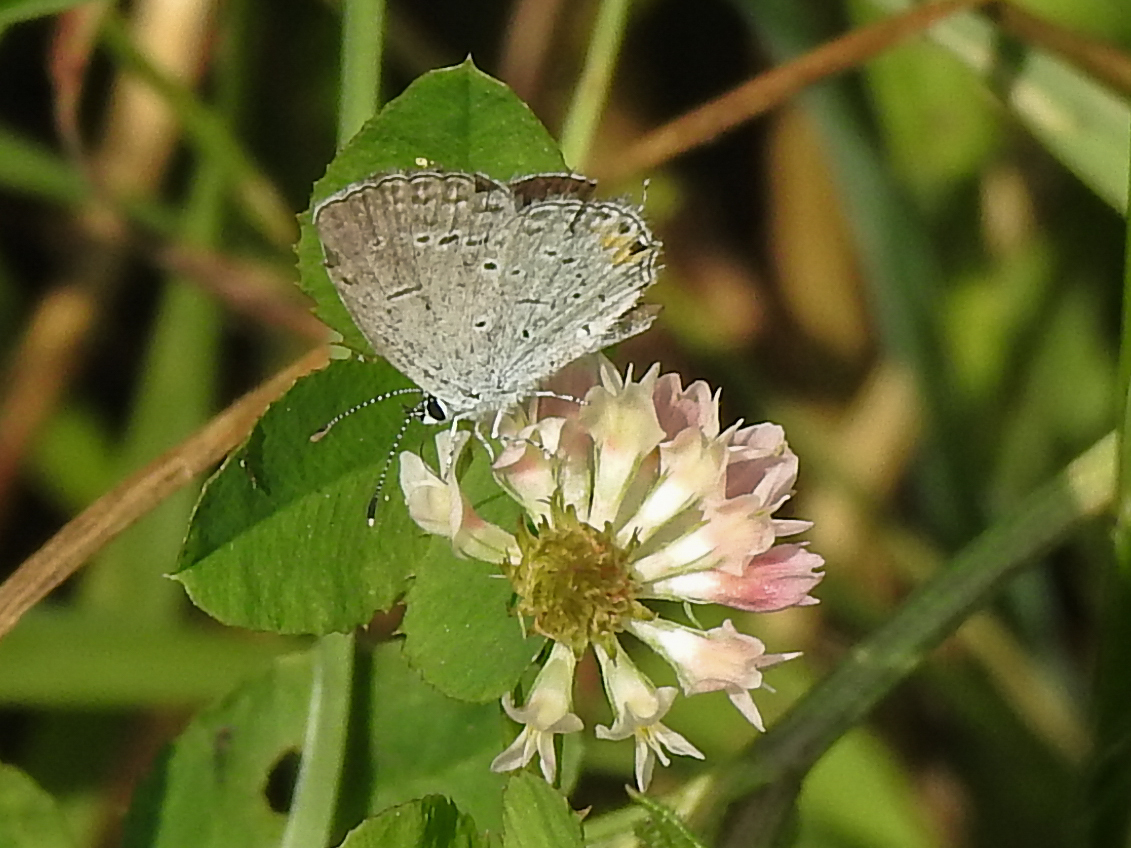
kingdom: Animalia
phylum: Arthropoda
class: Insecta
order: Lepidoptera
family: Lycaenidae
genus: Elkalyce
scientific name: Elkalyce comyntas
